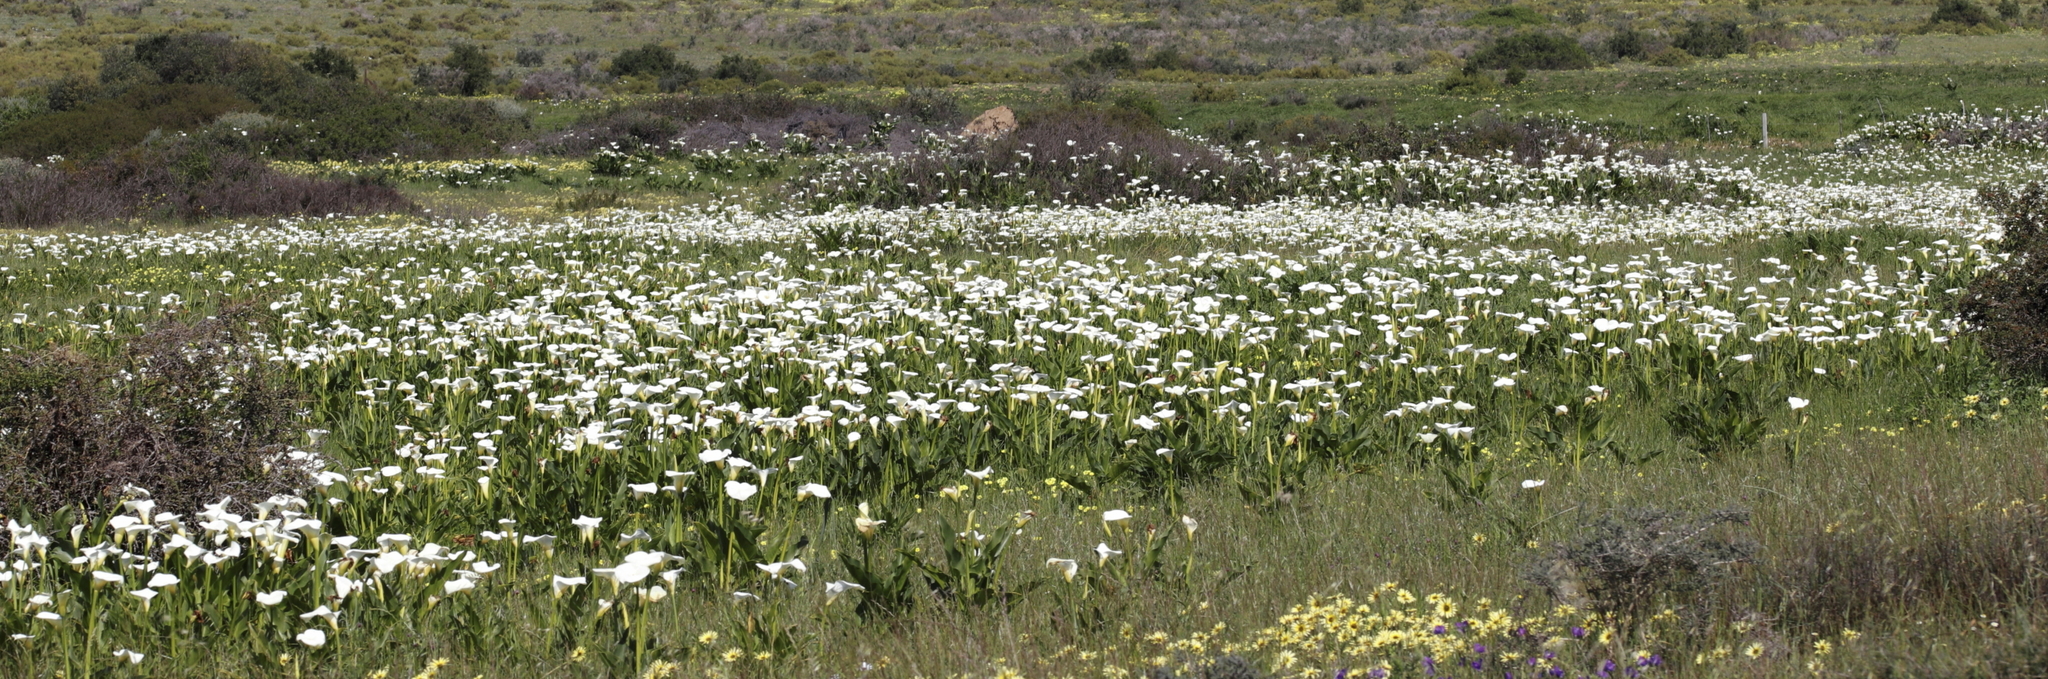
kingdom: Plantae
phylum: Tracheophyta
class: Liliopsida
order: Alismatales
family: Araceae
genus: Zantedeschia
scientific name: Zantedeschia aethiopica
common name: Altar-lily
